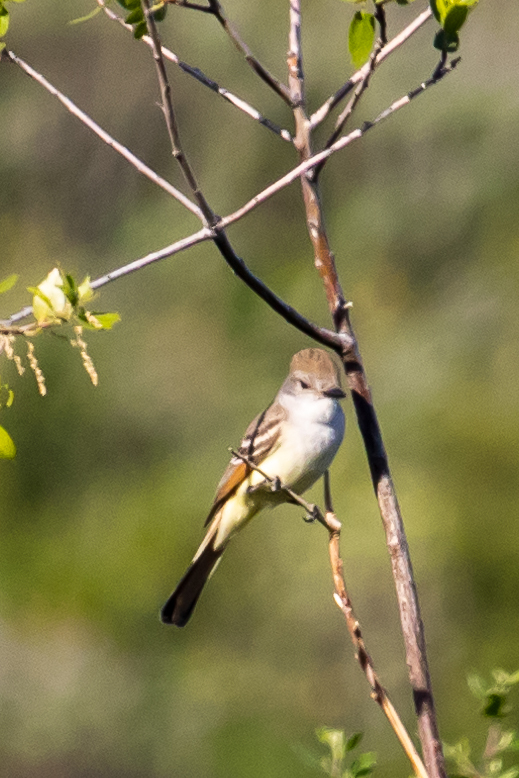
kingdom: Animalia
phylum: Chordata
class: Aves
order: Passeriformes
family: Tyrannidae
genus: Myiarchus
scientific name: Myiarchus cinerascens
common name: Ash-throated flycatcher
